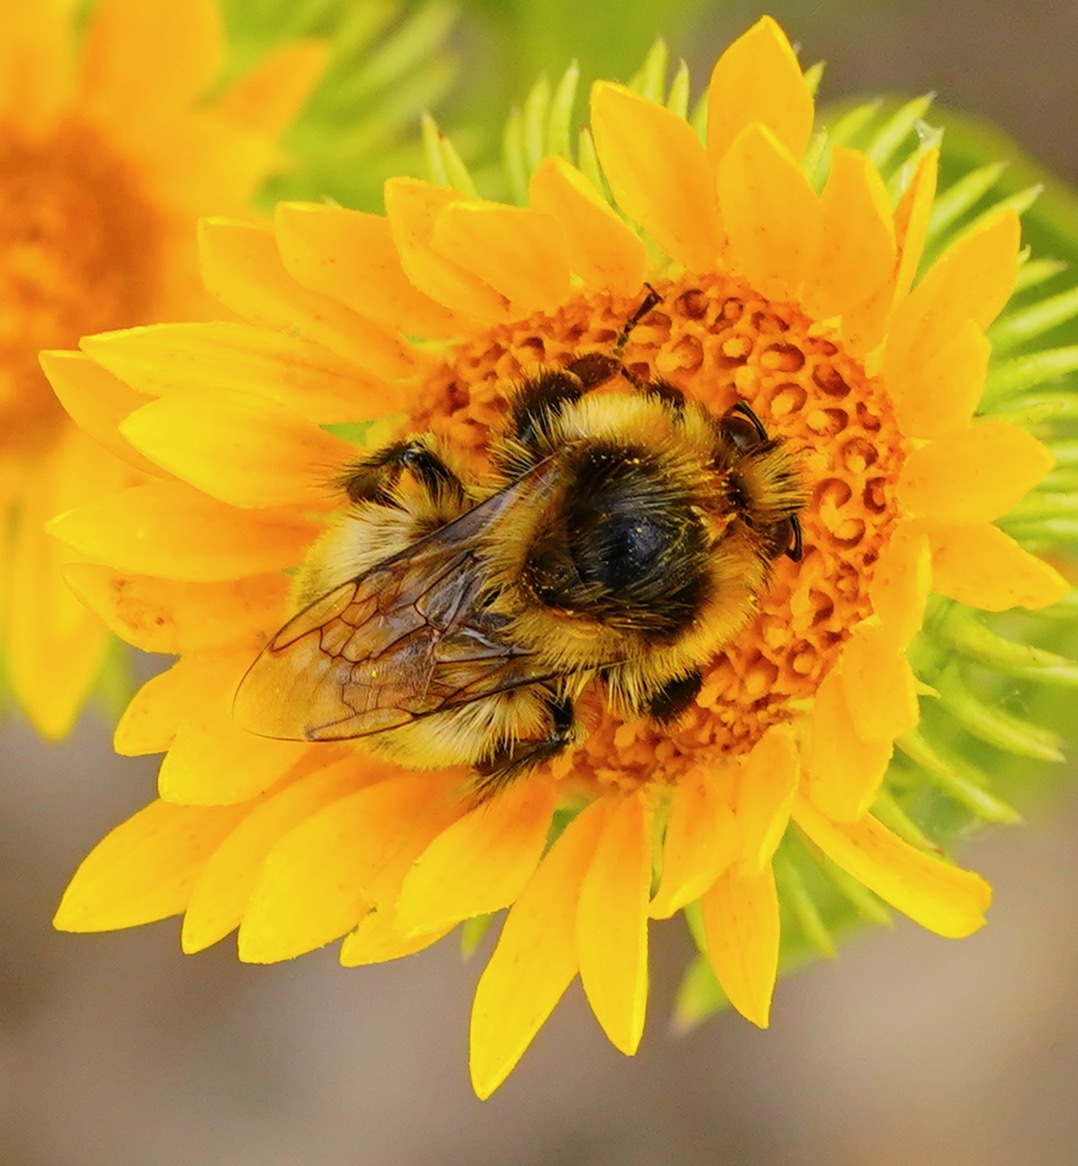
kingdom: Animalia
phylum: Arthropoda
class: Insecta
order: Hymenoptera
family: Apidae
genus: Bombus
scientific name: Bombus rufocinctus
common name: Red-belted bumble bee
